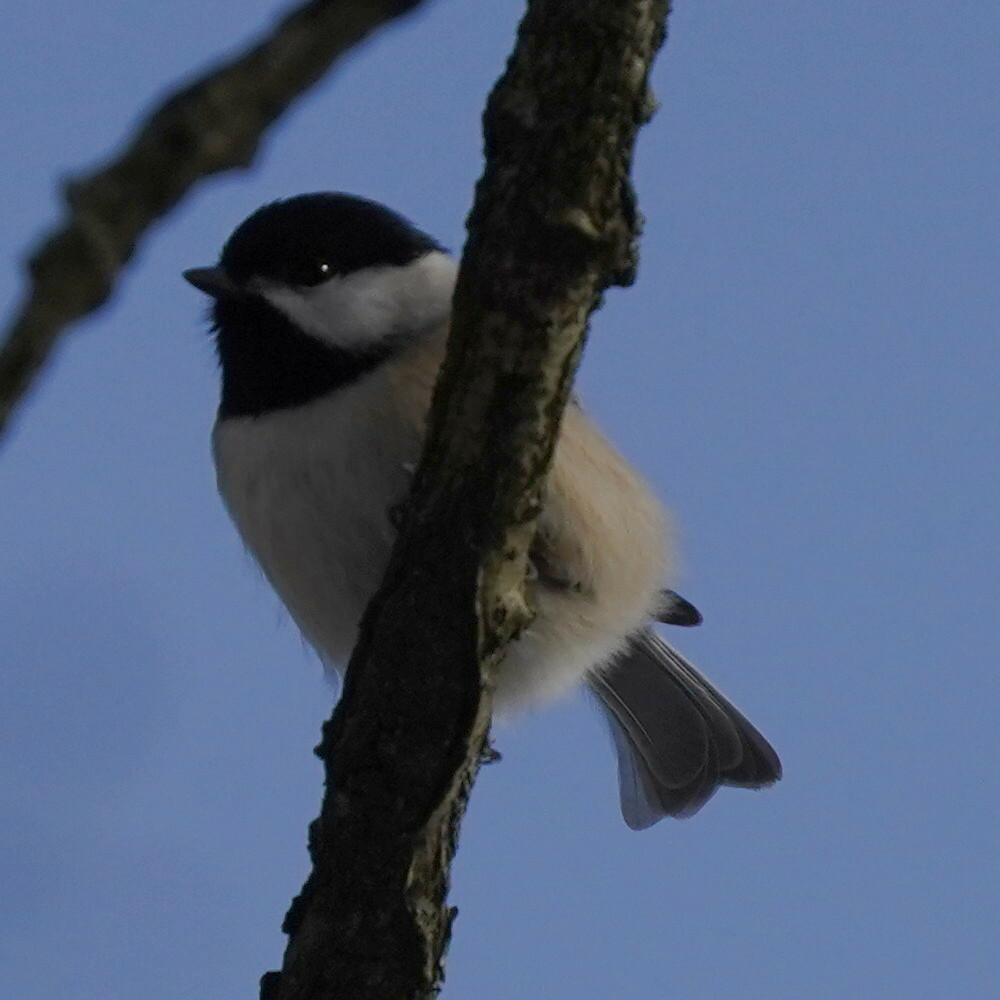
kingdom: Animalia
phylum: Chordata
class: Aves
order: Passeriformes
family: Paridae
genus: Poecile
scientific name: Poecile atricapillus
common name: Black-capped chickadee
